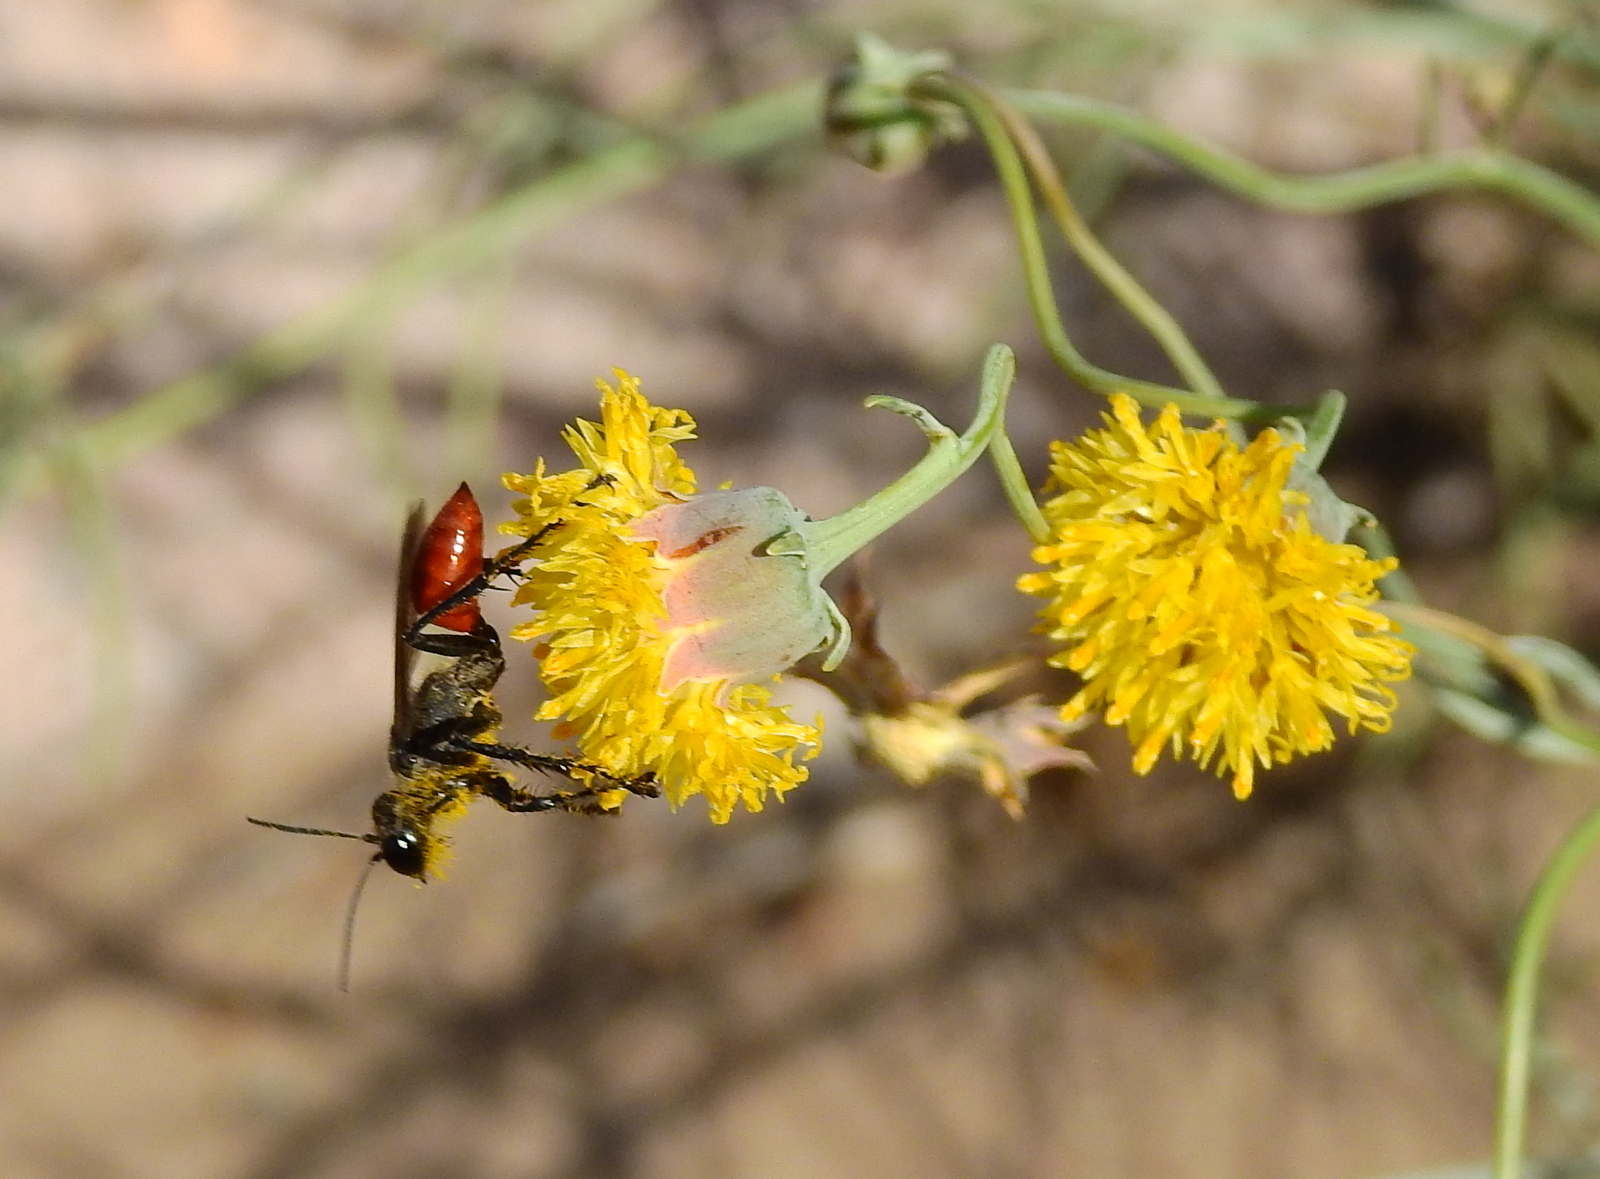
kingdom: Plantae
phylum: Tracheophyta
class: Magnoliopsida
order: Asterales
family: Asteraceae
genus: Thelesperma
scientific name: Thelesperma megapotamicum
